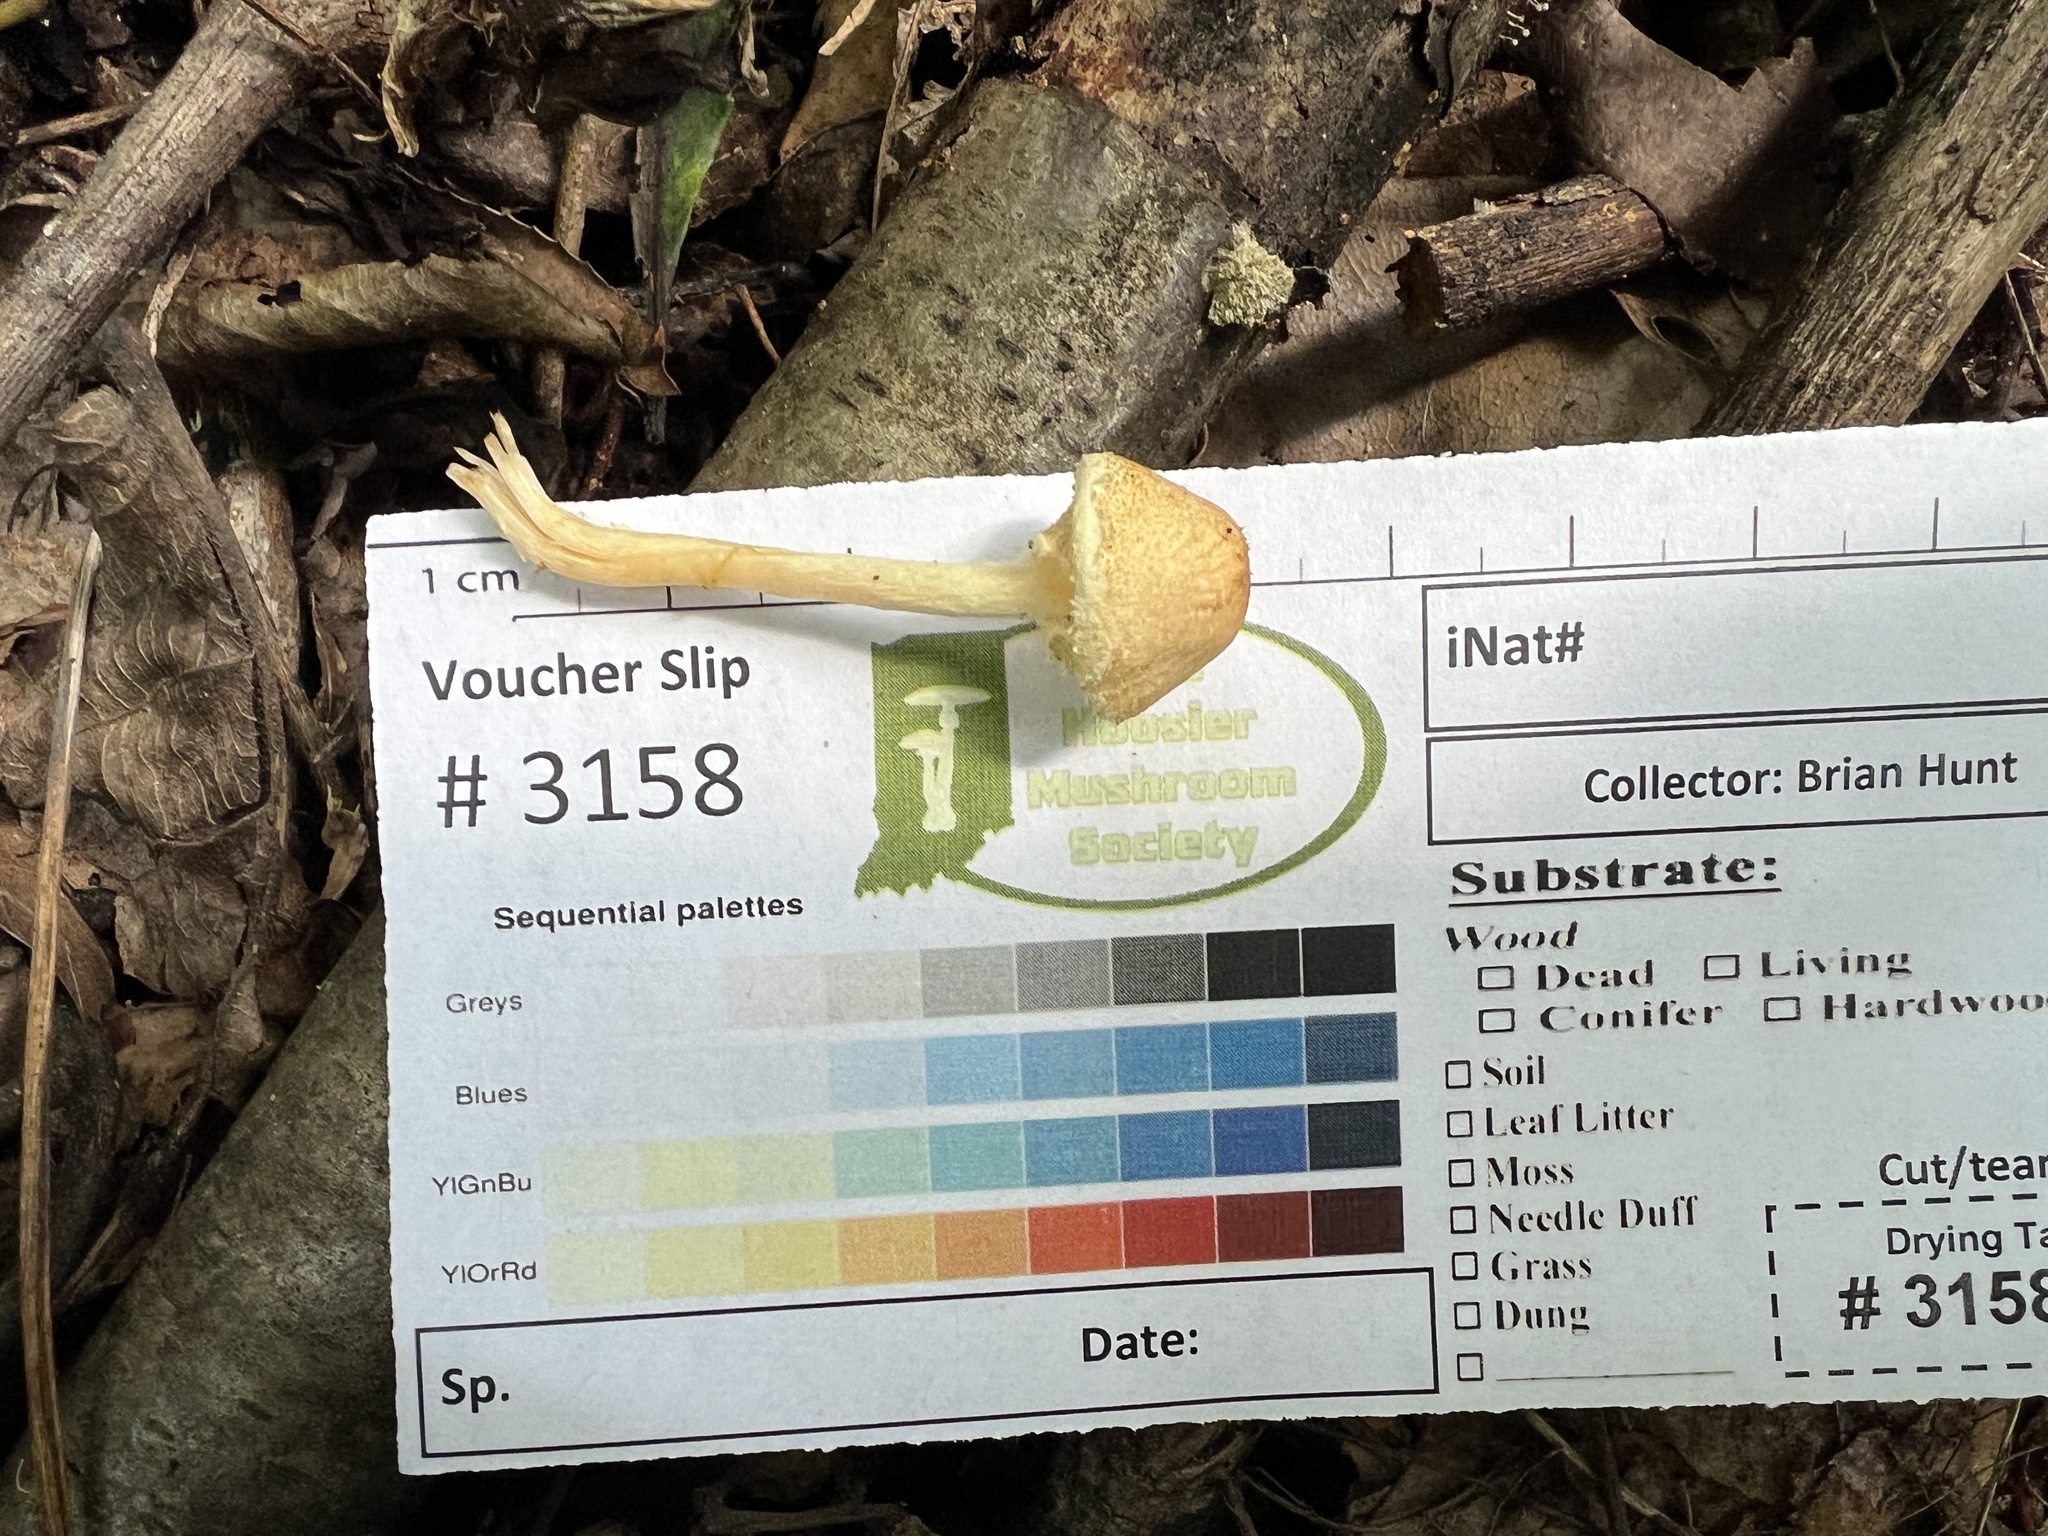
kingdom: Fungi
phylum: Basidiomycota
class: Agaricomycetes
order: Agaricales
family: Agaricaceae
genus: Lepiota
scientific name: Lepiota maculans
